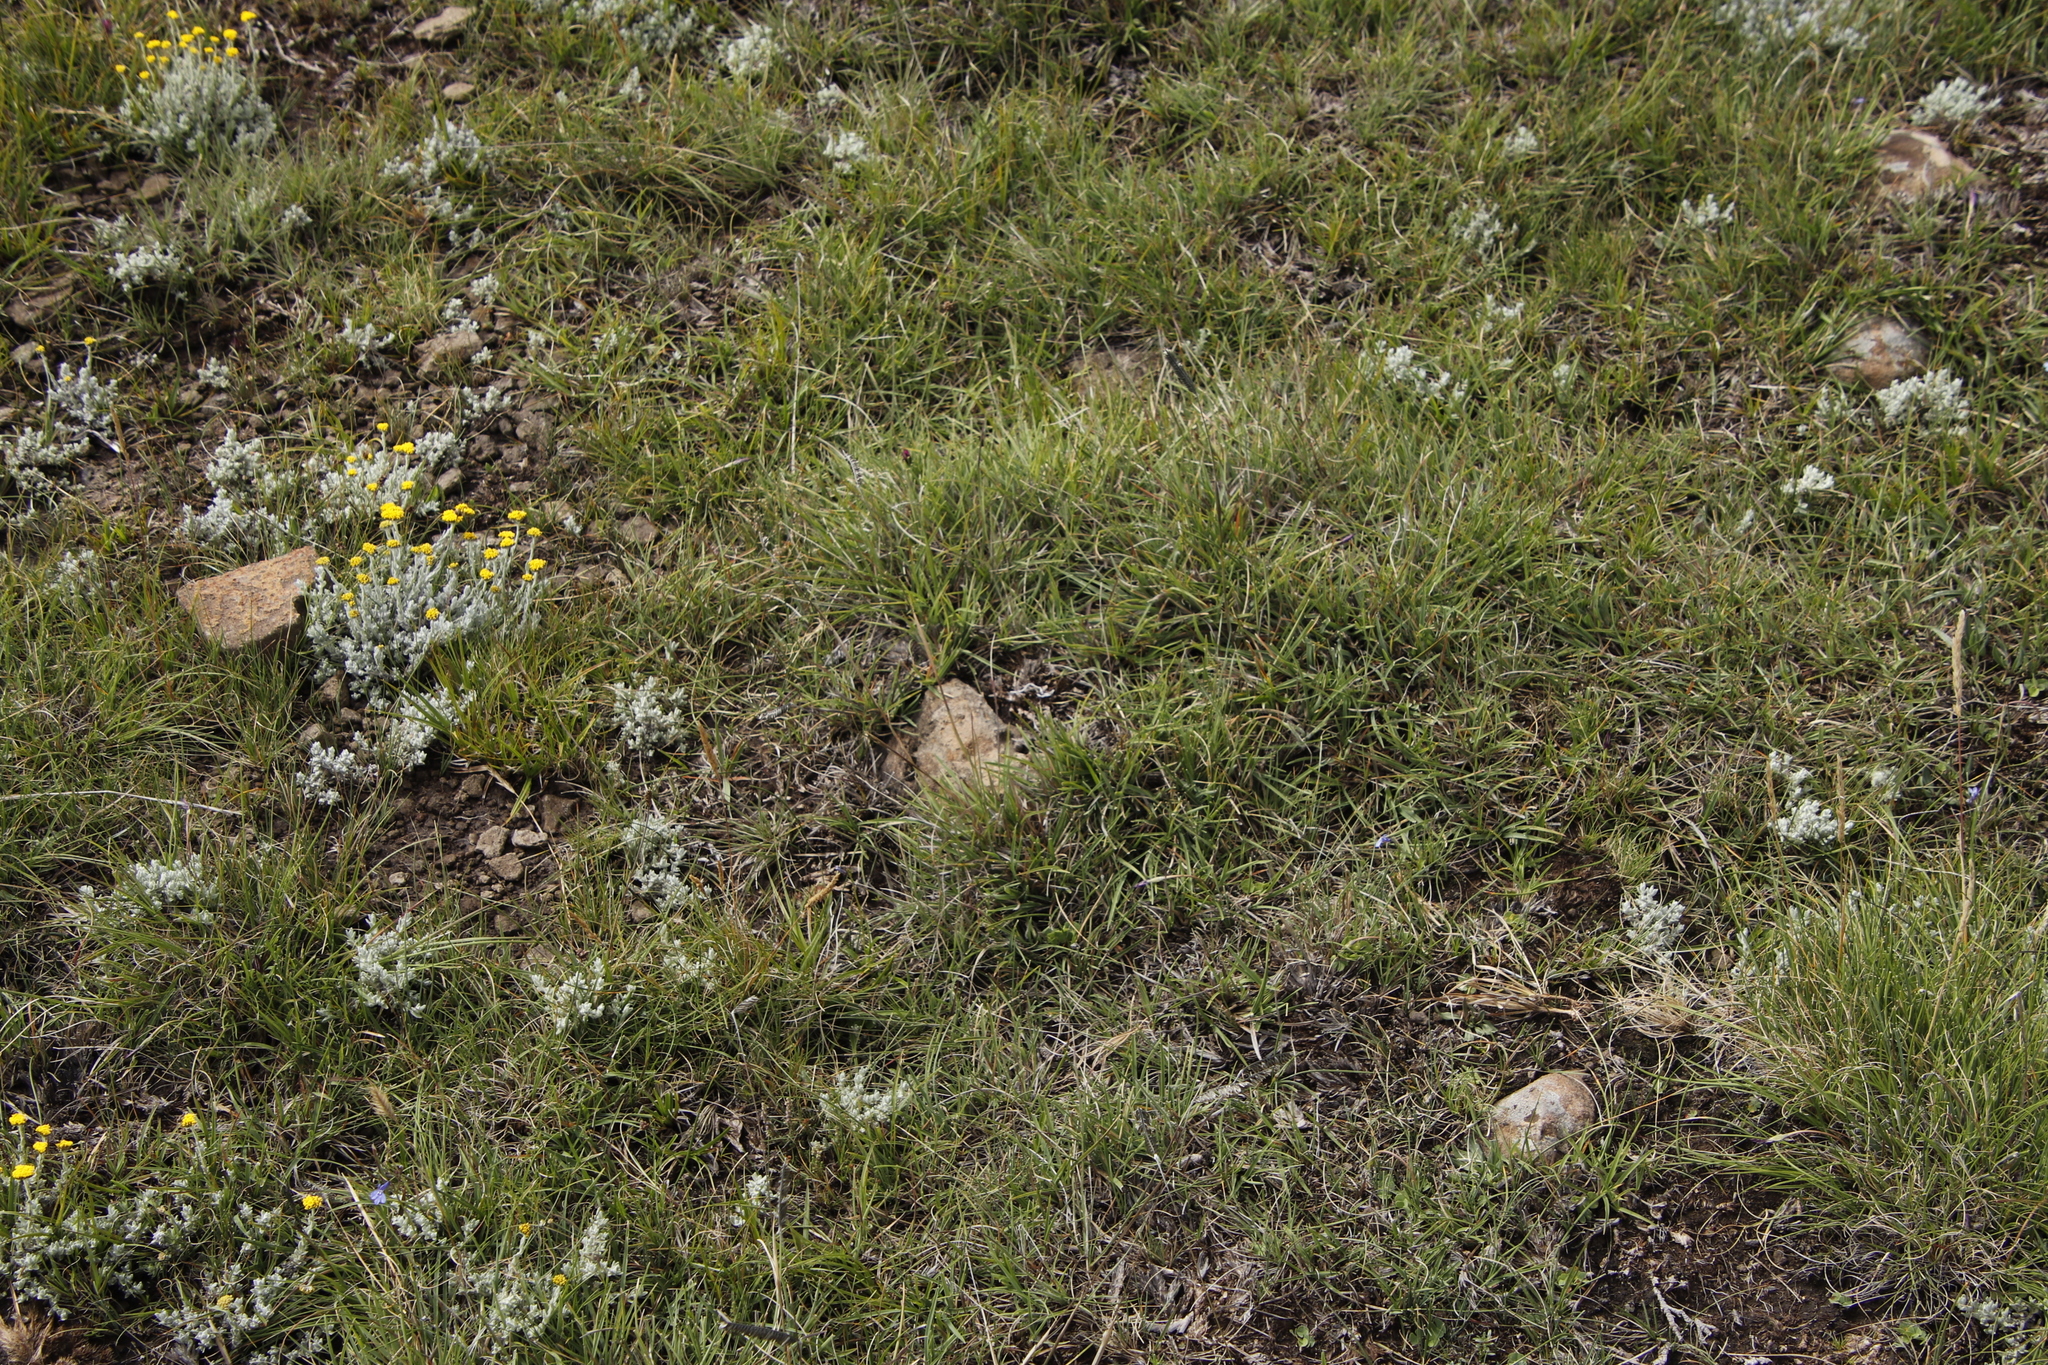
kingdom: Plantae
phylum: Tracheophyta
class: Liliopsida
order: Poales
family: Poaceae
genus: Harpochloa
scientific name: Harpochloa falx
